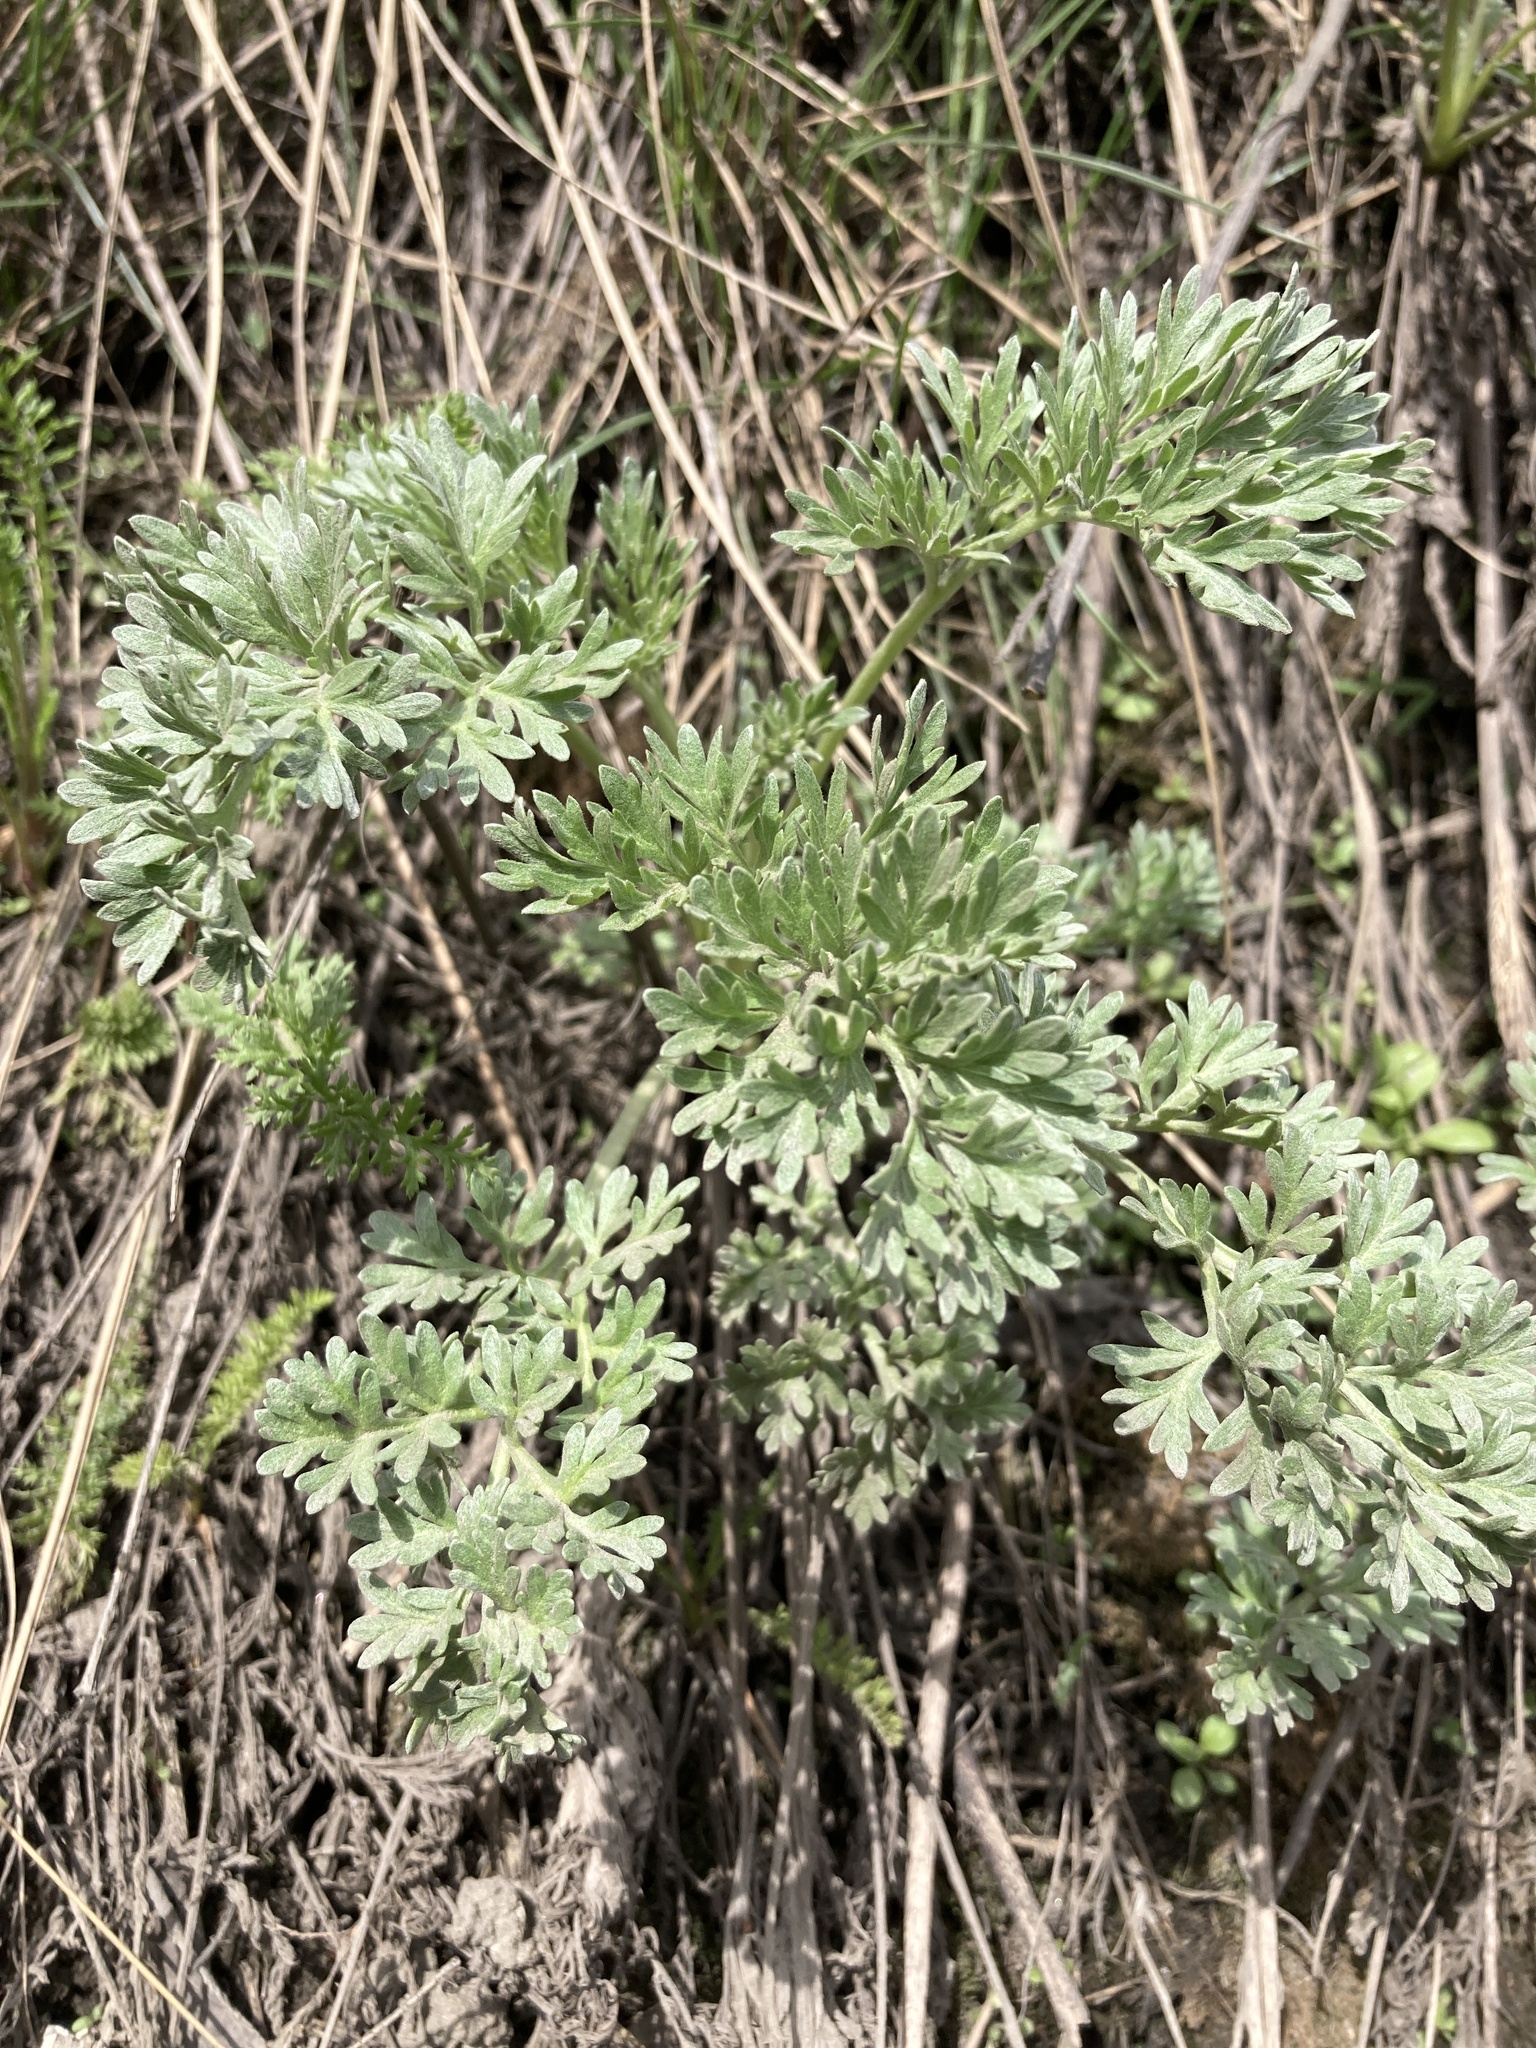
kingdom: Plantae
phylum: Tracheophyta
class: Magnoliopsida
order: Asterales
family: Asteraceae
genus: Artemisia
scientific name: Artemisia absinthium
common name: Wormwood
